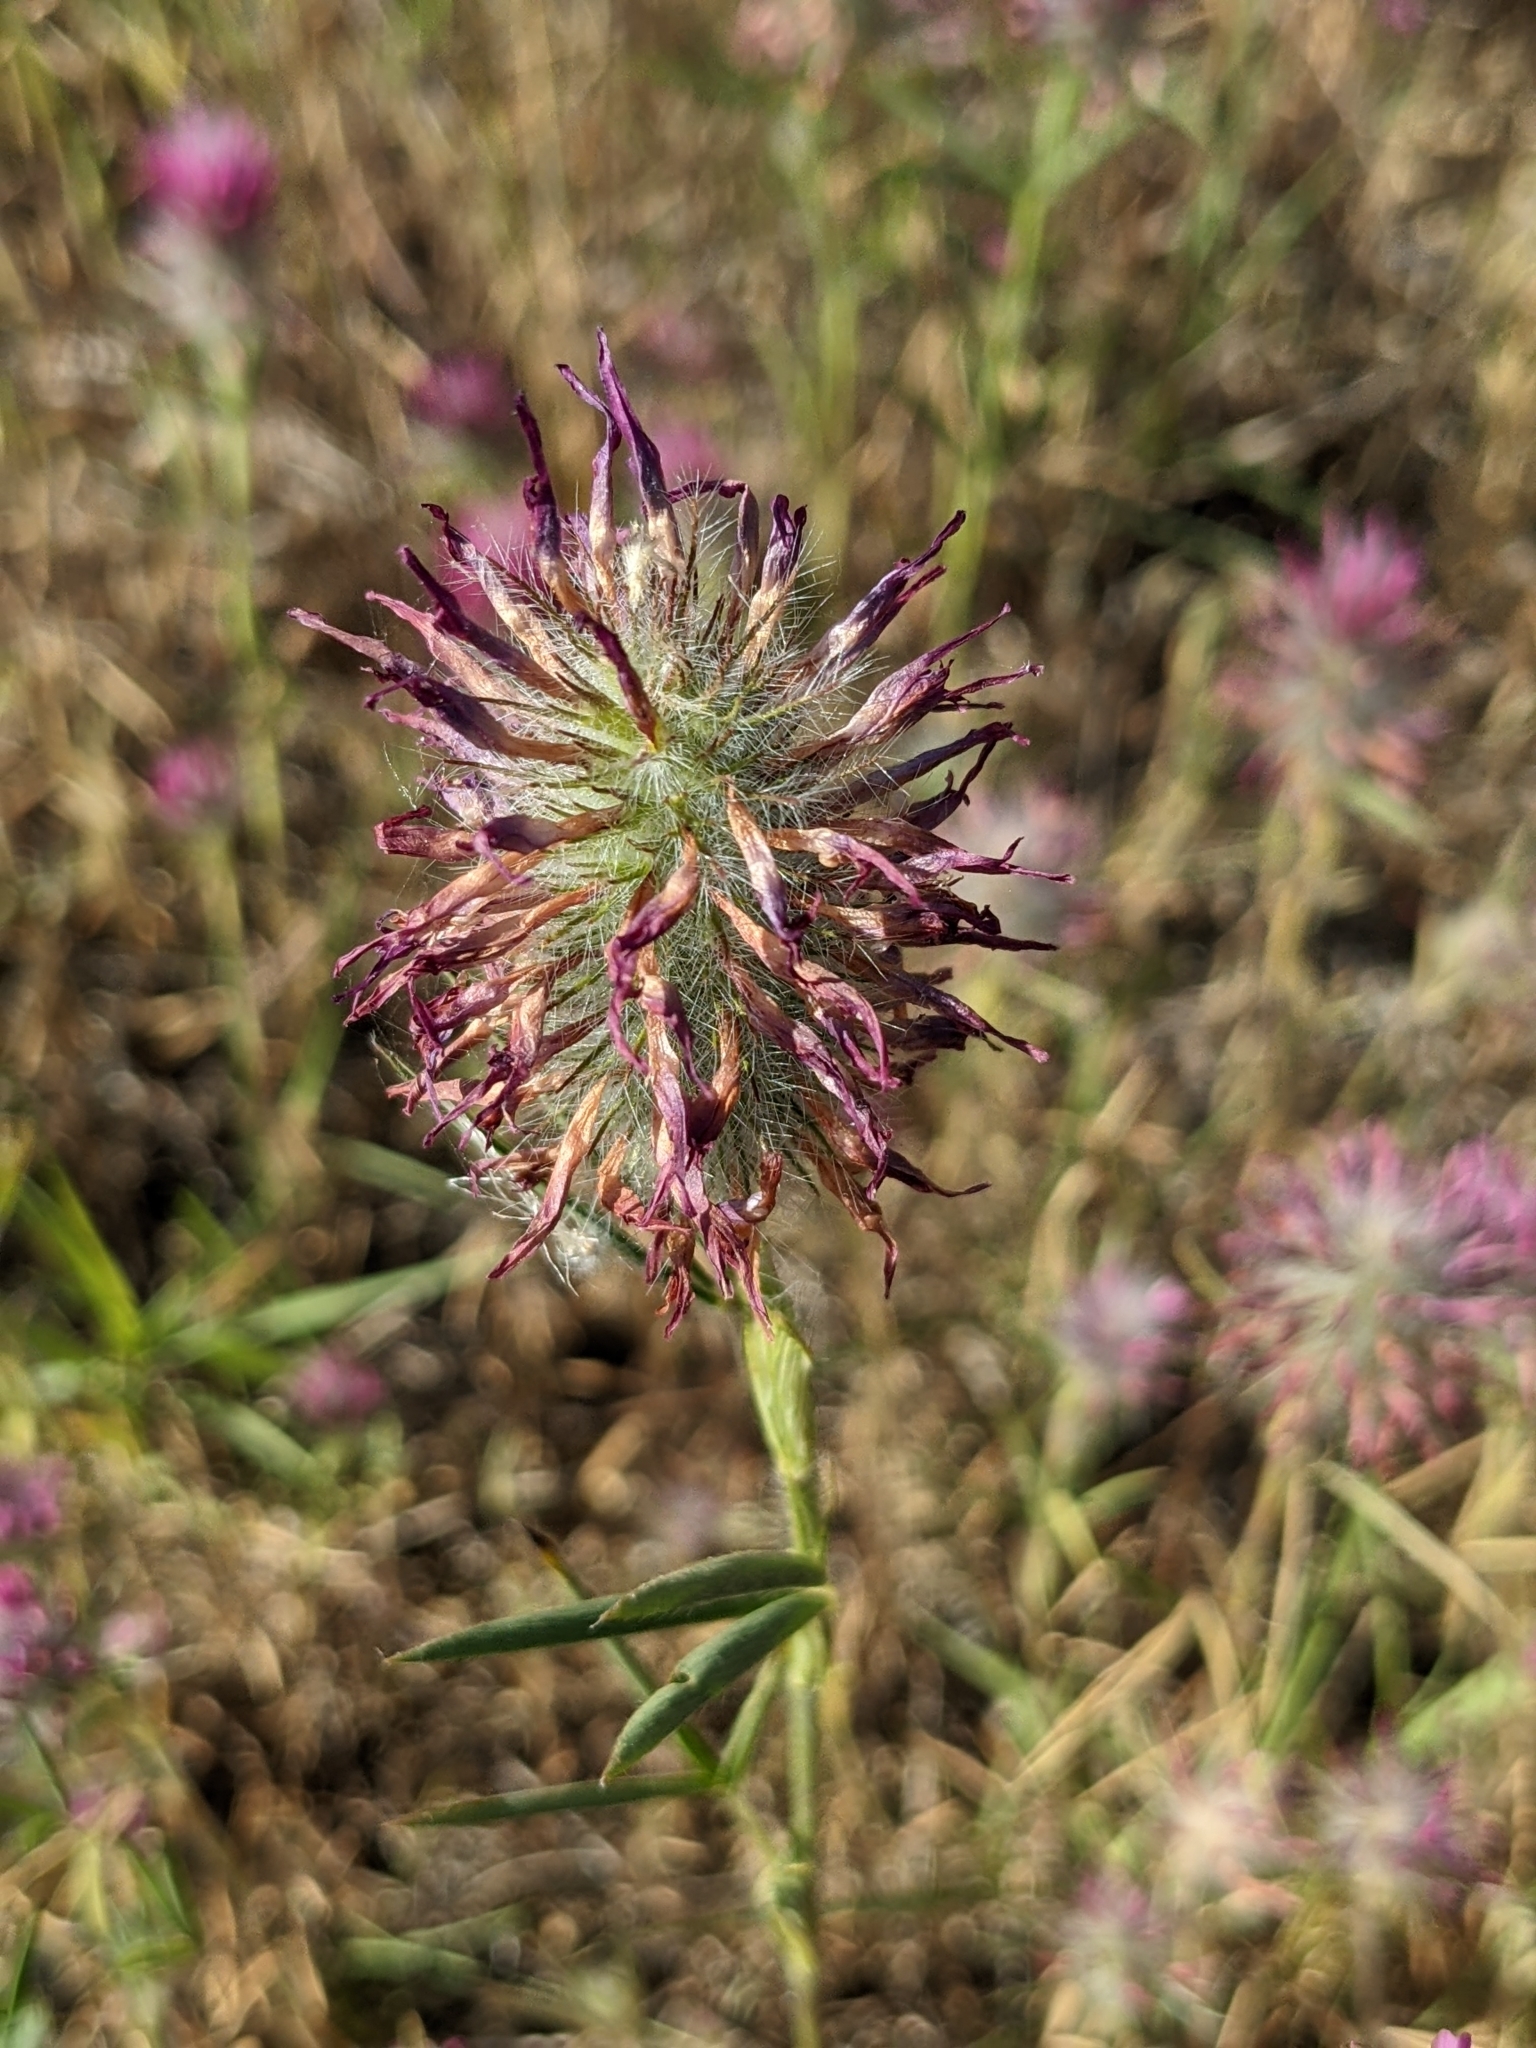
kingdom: Plantae
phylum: Tracheophyta
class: Magnoliopsida
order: Fabales
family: Fabaceae
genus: Trifolium
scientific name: Trifolium purpureum
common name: Purple clover
